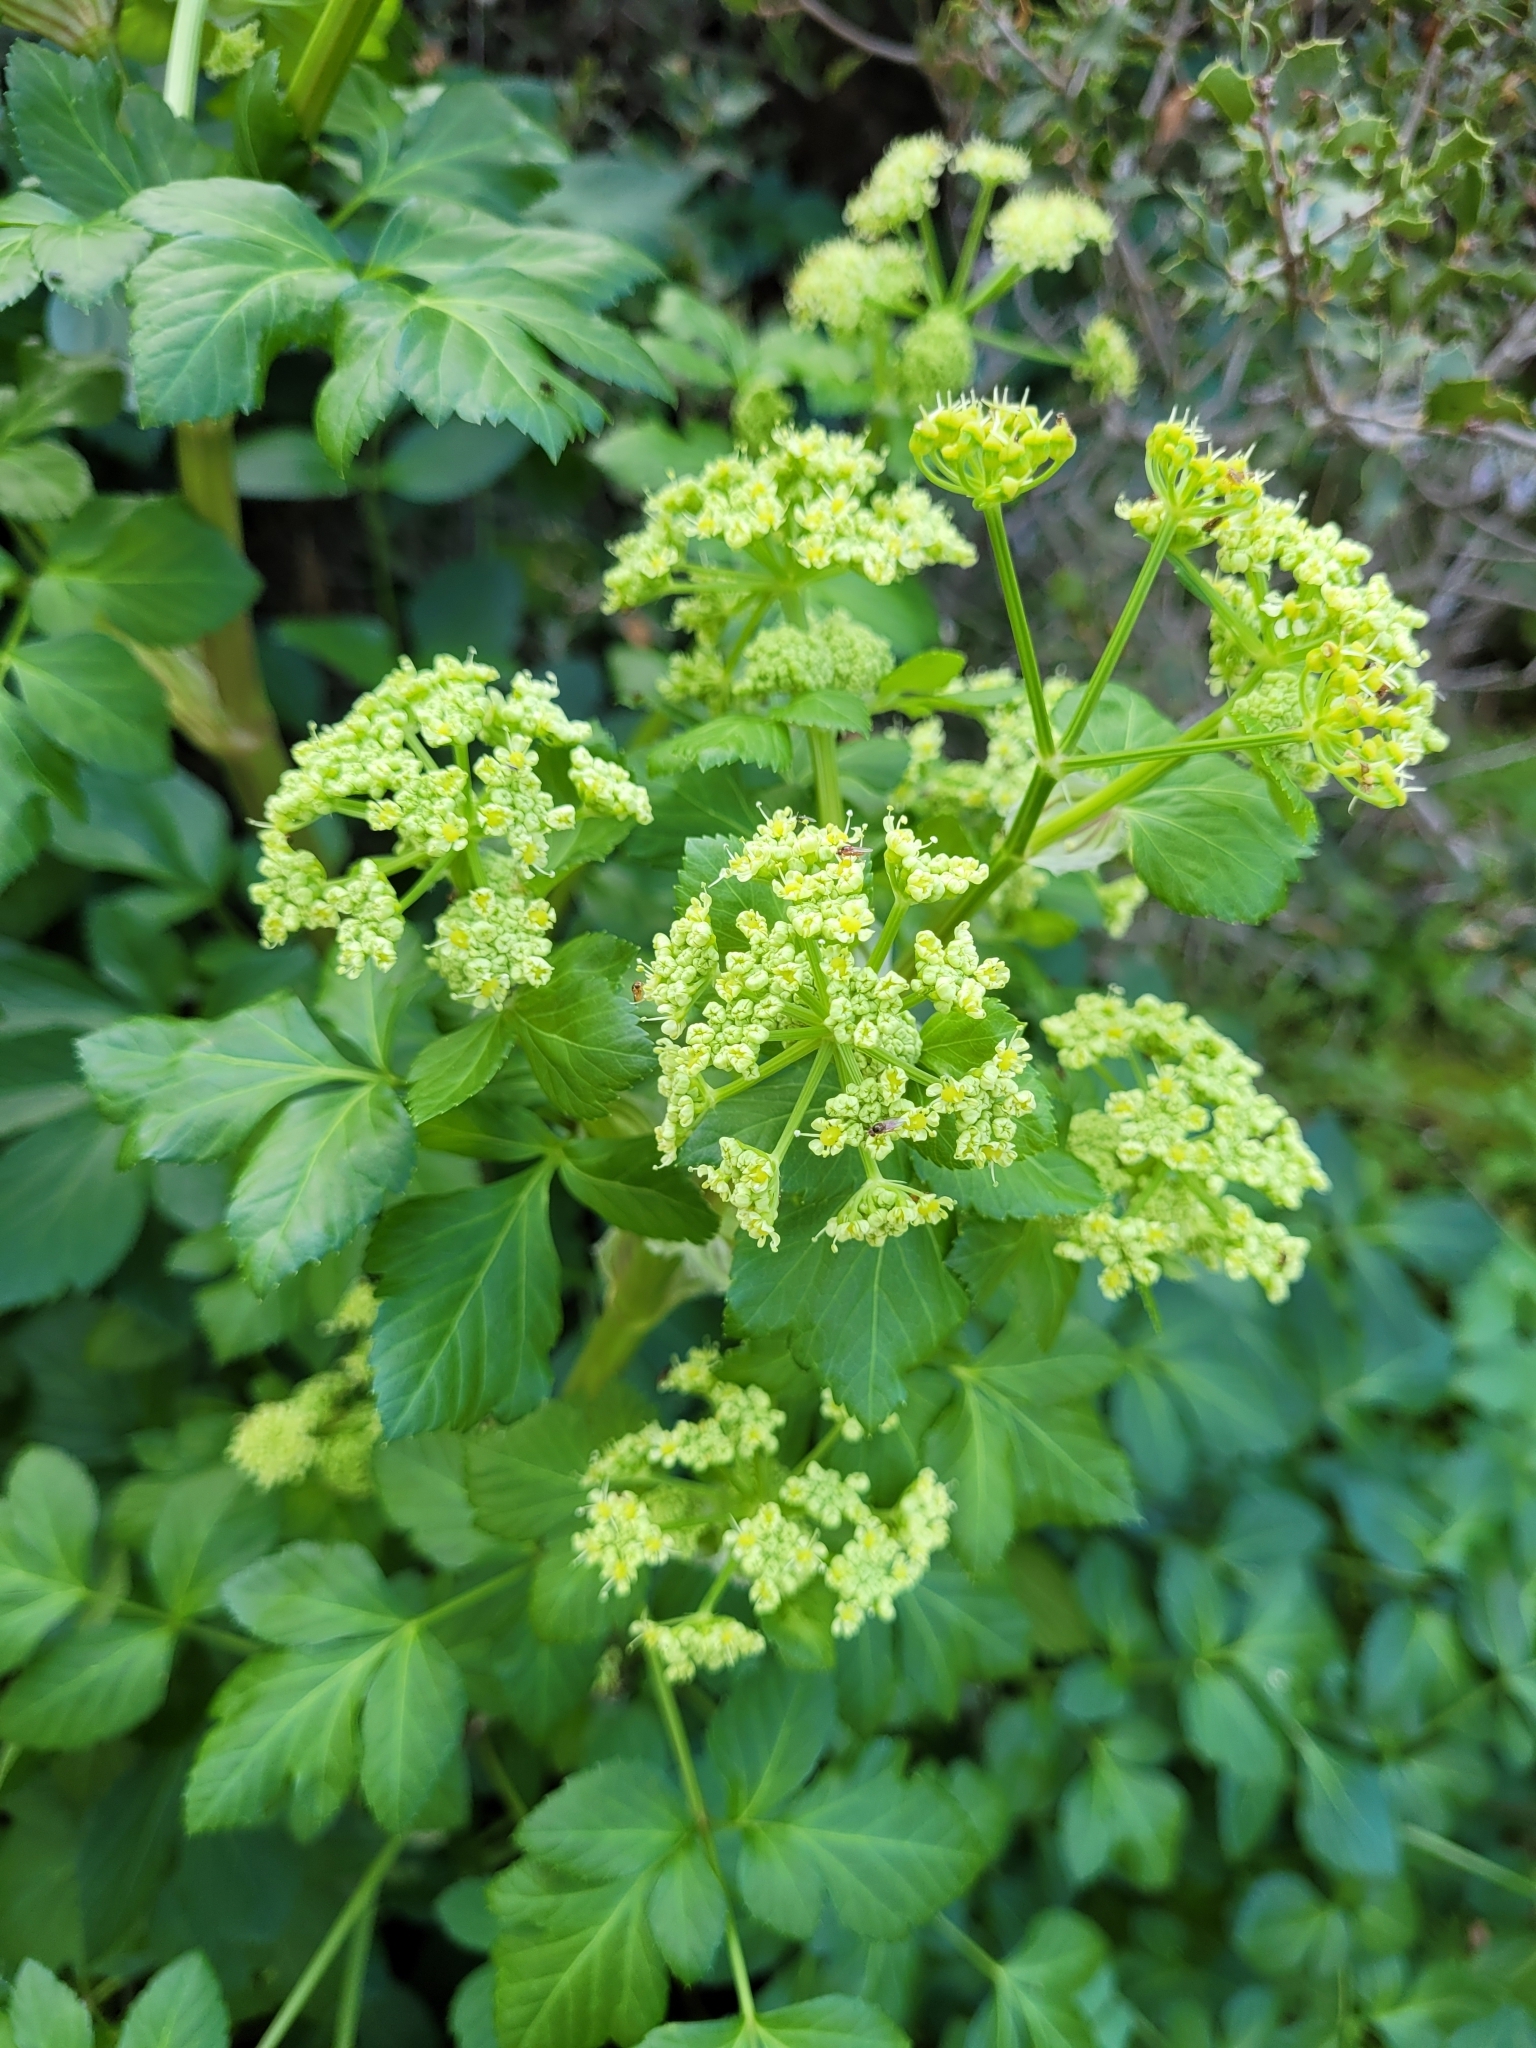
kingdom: Plantae
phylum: Tracheophyta
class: Magnoliopsida
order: Apiales
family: Apiaceae
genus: Smyrnium
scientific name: Smyrnium olusatrum
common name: Alexanders
